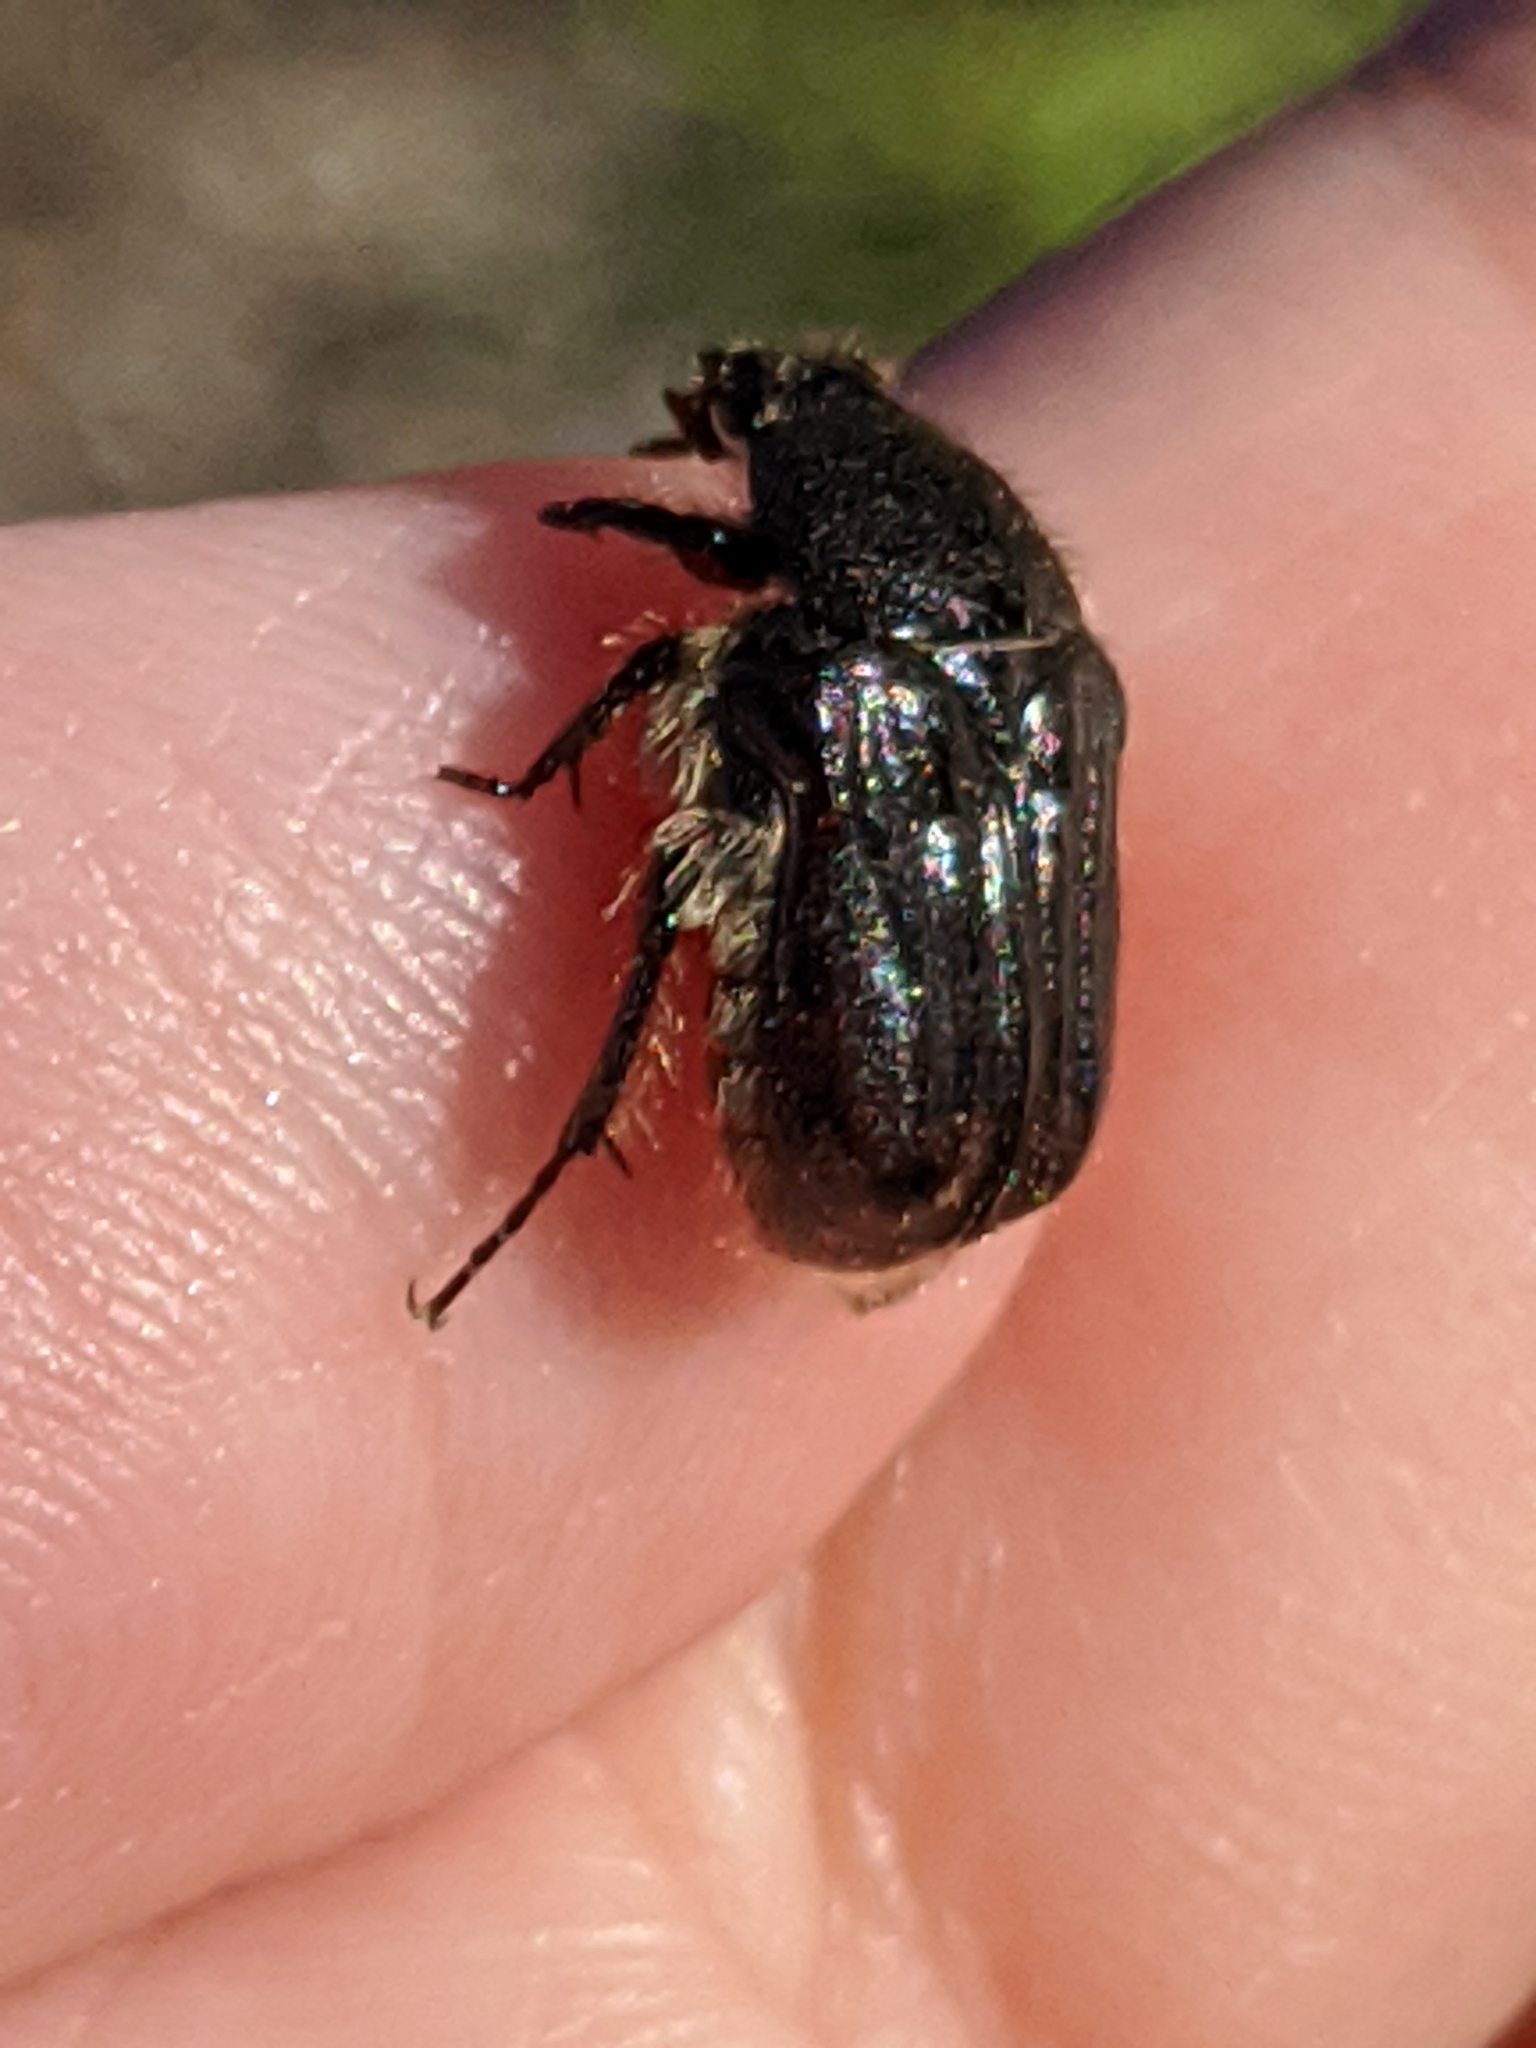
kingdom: Animalia
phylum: Arthropoda
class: Insecta
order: Coleoptera
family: Scarabaeidae
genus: Euphoria
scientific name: Euphoria kernii
